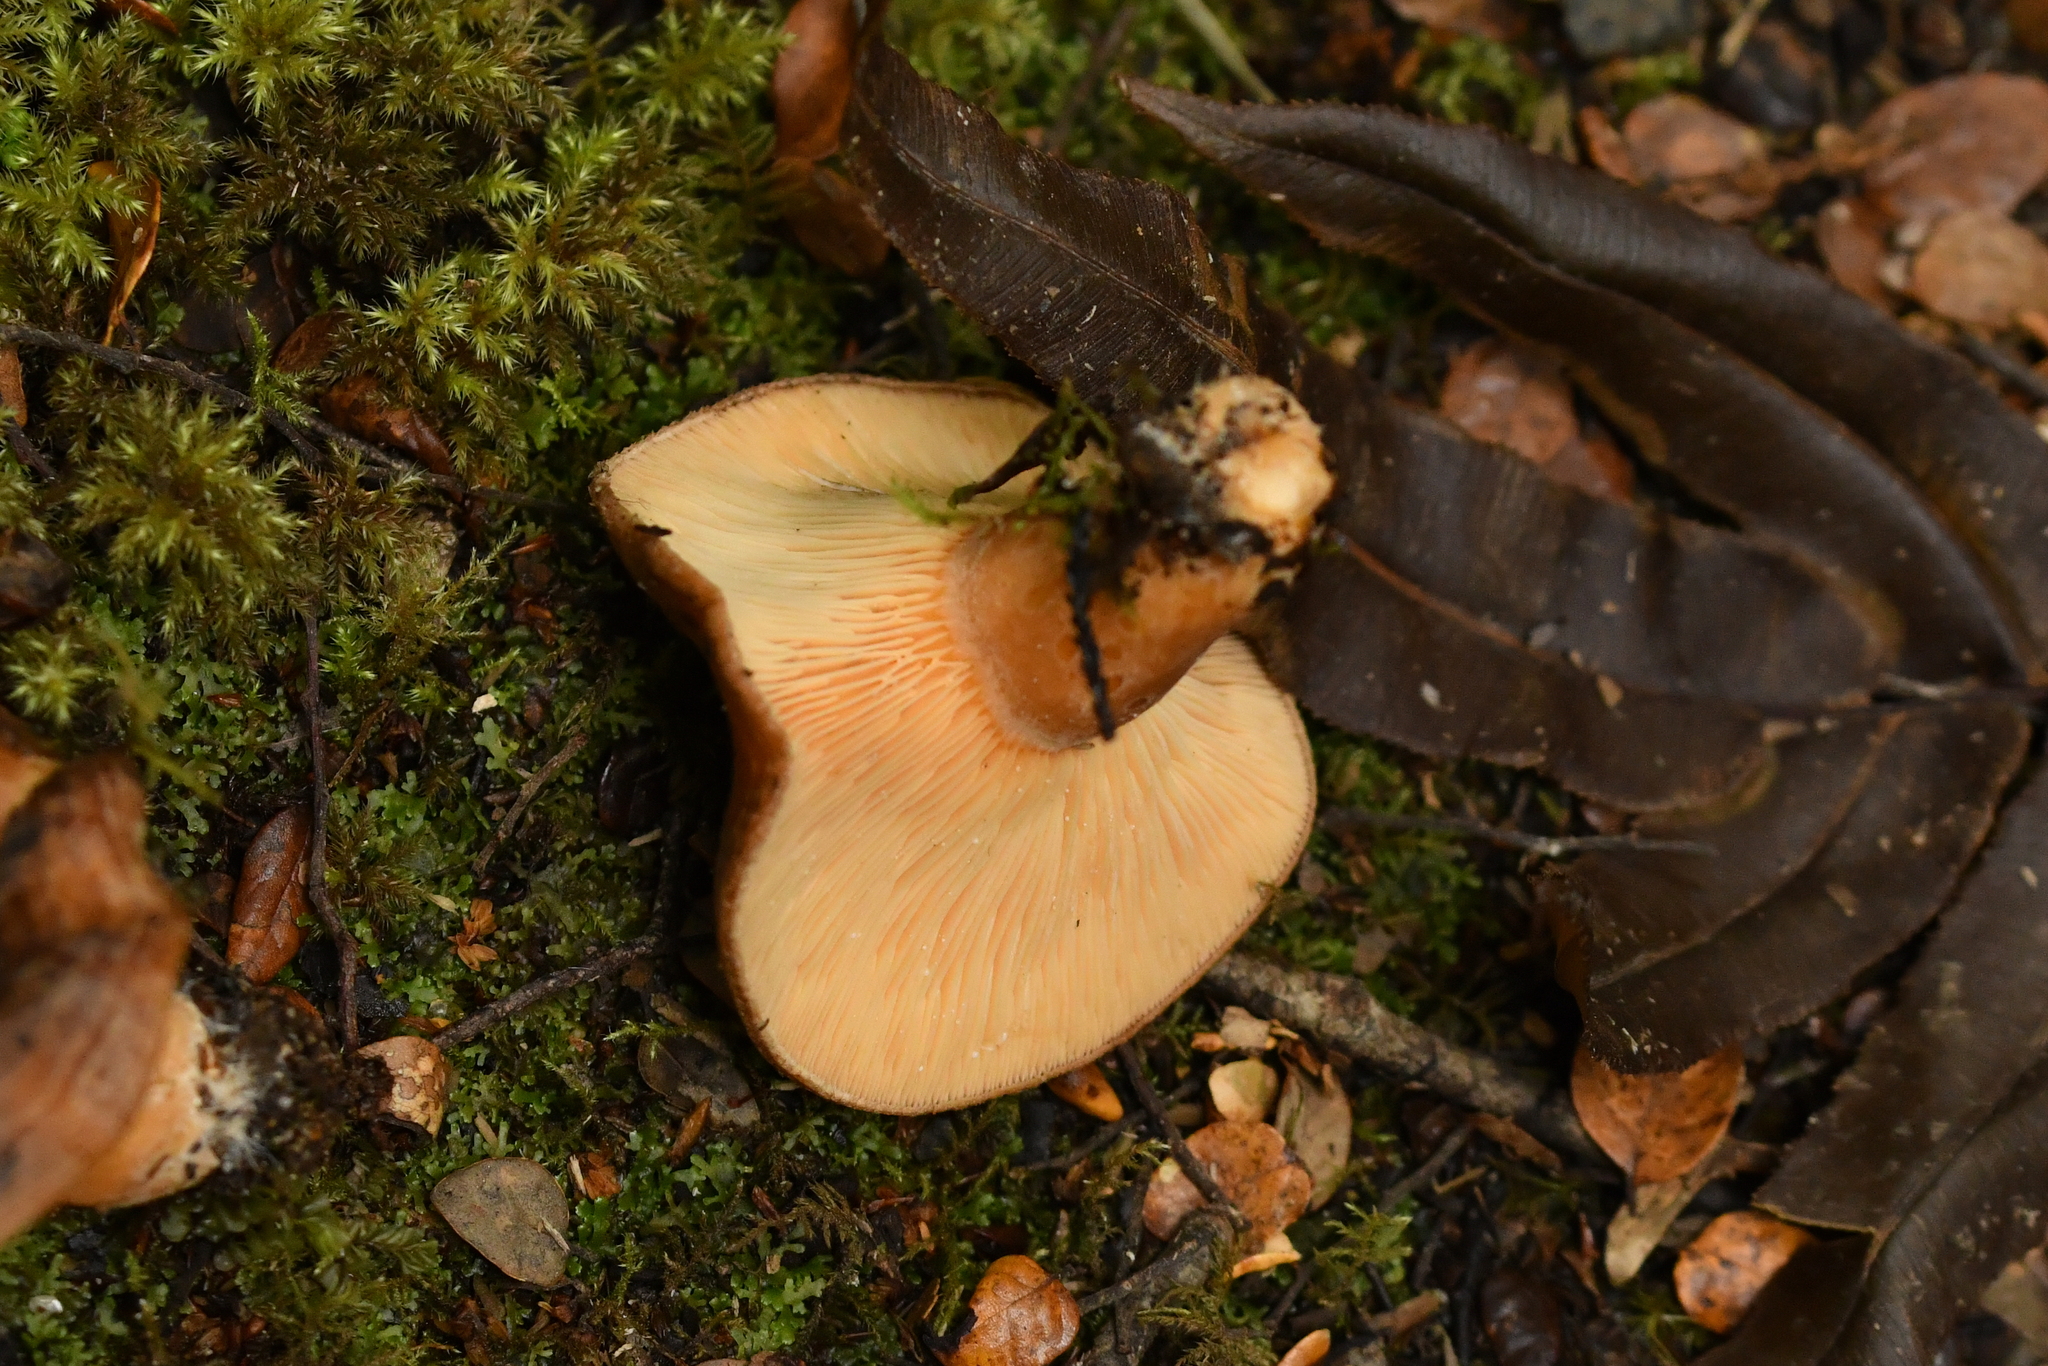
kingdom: Fungi
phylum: Basidiomycota
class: Agaricomycetes
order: Russulales
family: Russulaceae
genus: Lactarius
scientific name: Lactarius tawai
